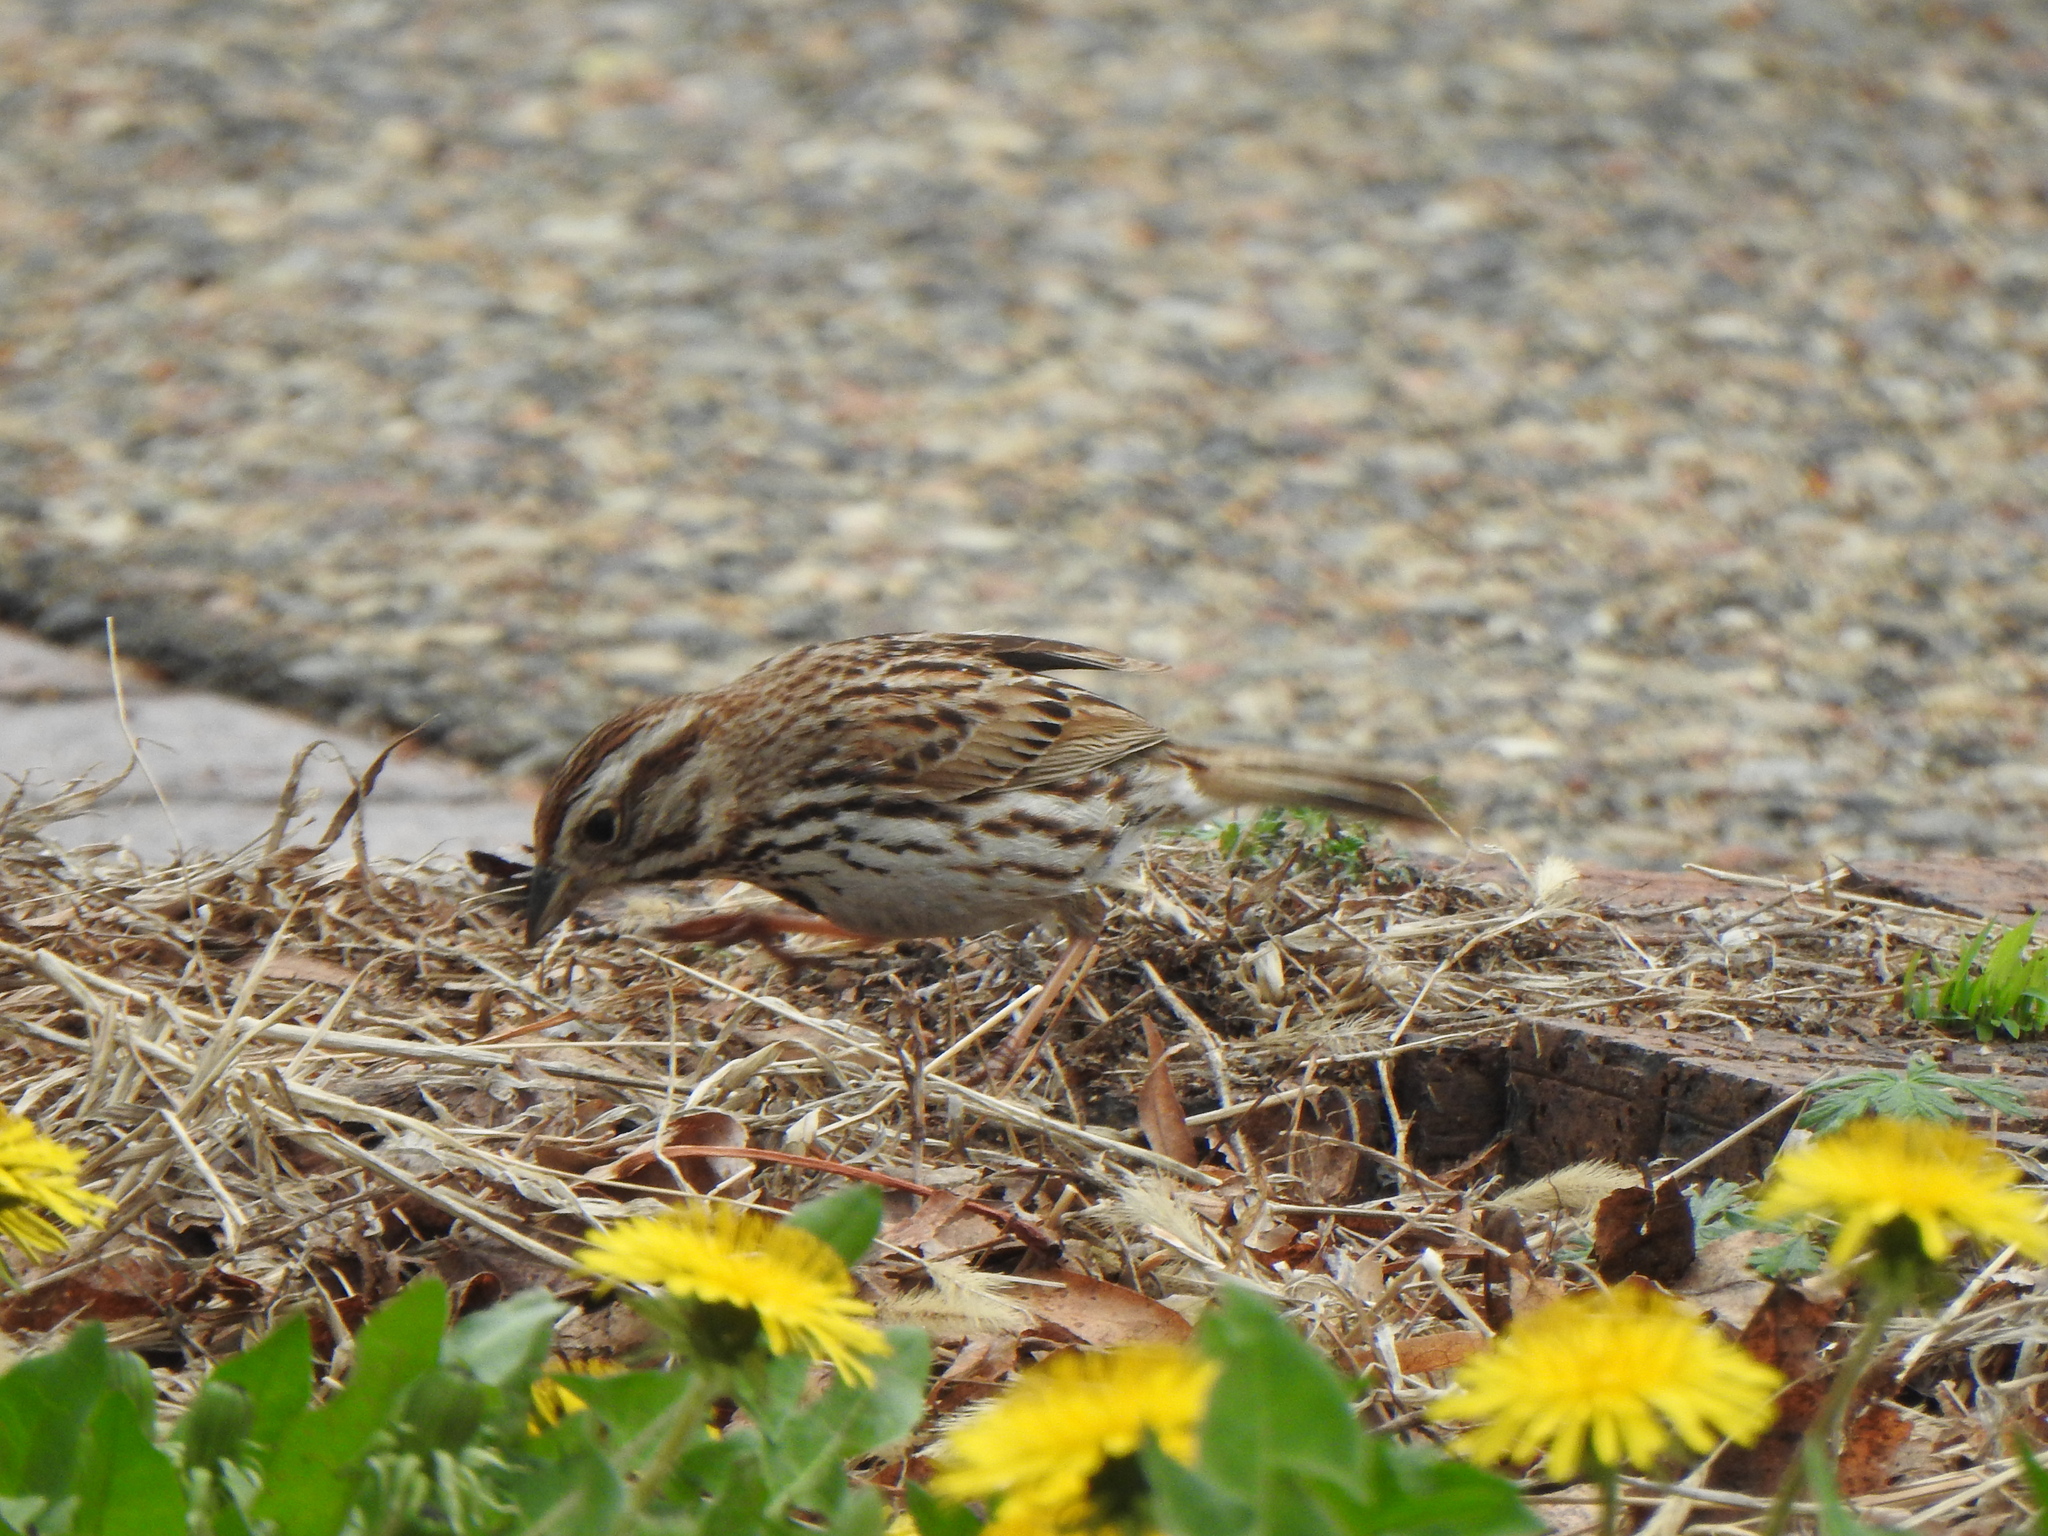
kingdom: Animalia
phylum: Chordata
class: Aves
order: Passeriformes
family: Passerellidae
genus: Melospiza
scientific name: Melospiza melodia
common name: Song sparrow
